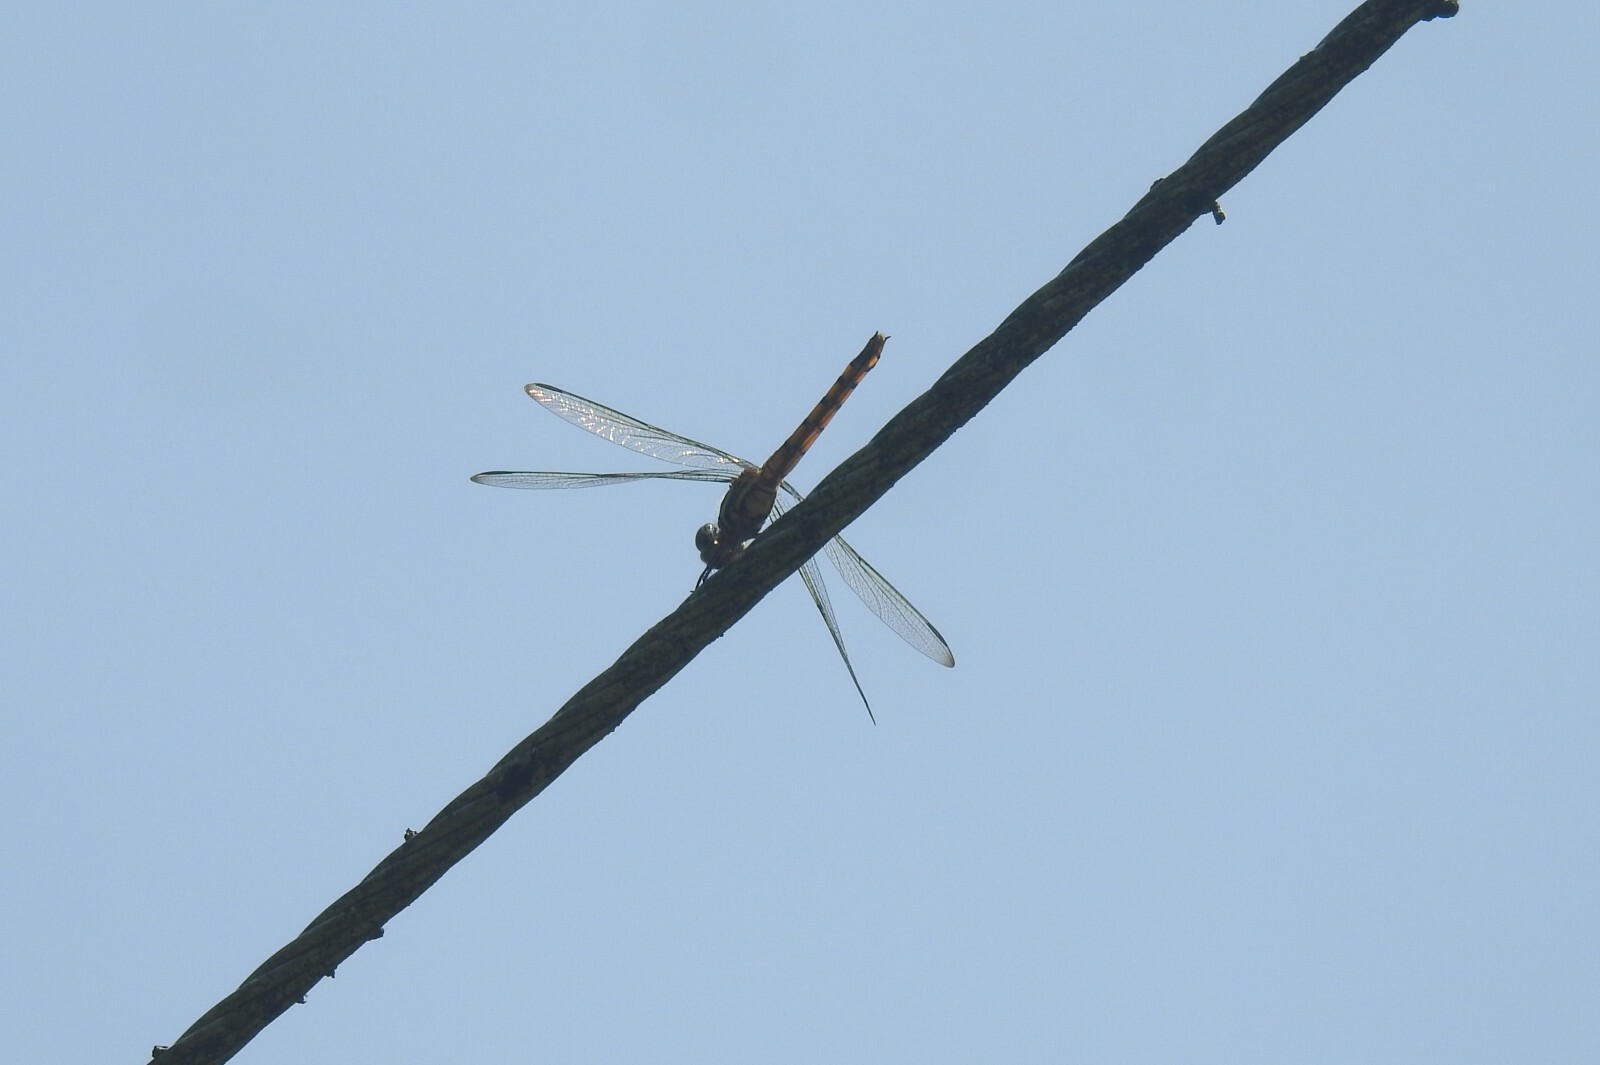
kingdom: Animalia
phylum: Arthropoda
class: Insecta
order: Odonata
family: Libellulidae
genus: Potamarcha
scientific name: Potamarcha congener
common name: Blue chaser
